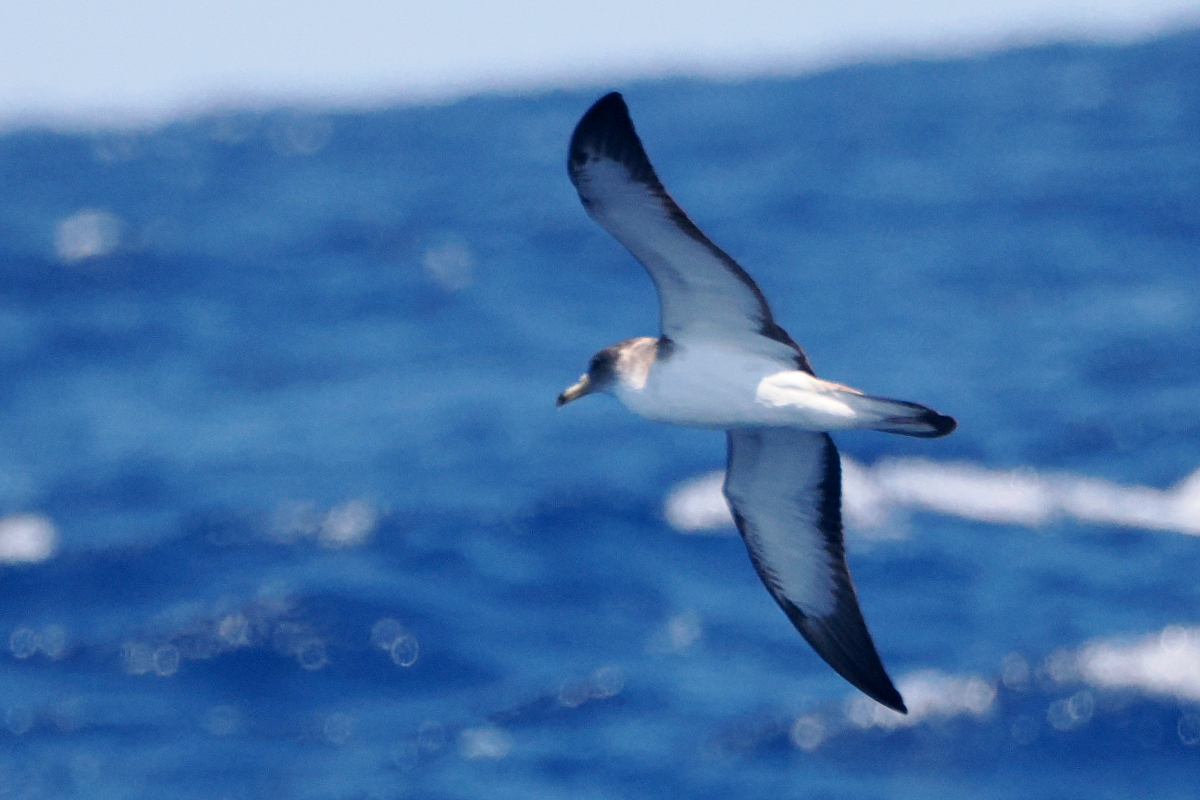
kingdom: Animalia
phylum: Chordata
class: Aves
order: Procellariiformes
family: Procellariidae
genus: Calonectris
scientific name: Calonectris diomedea
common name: Cory's shearwater
